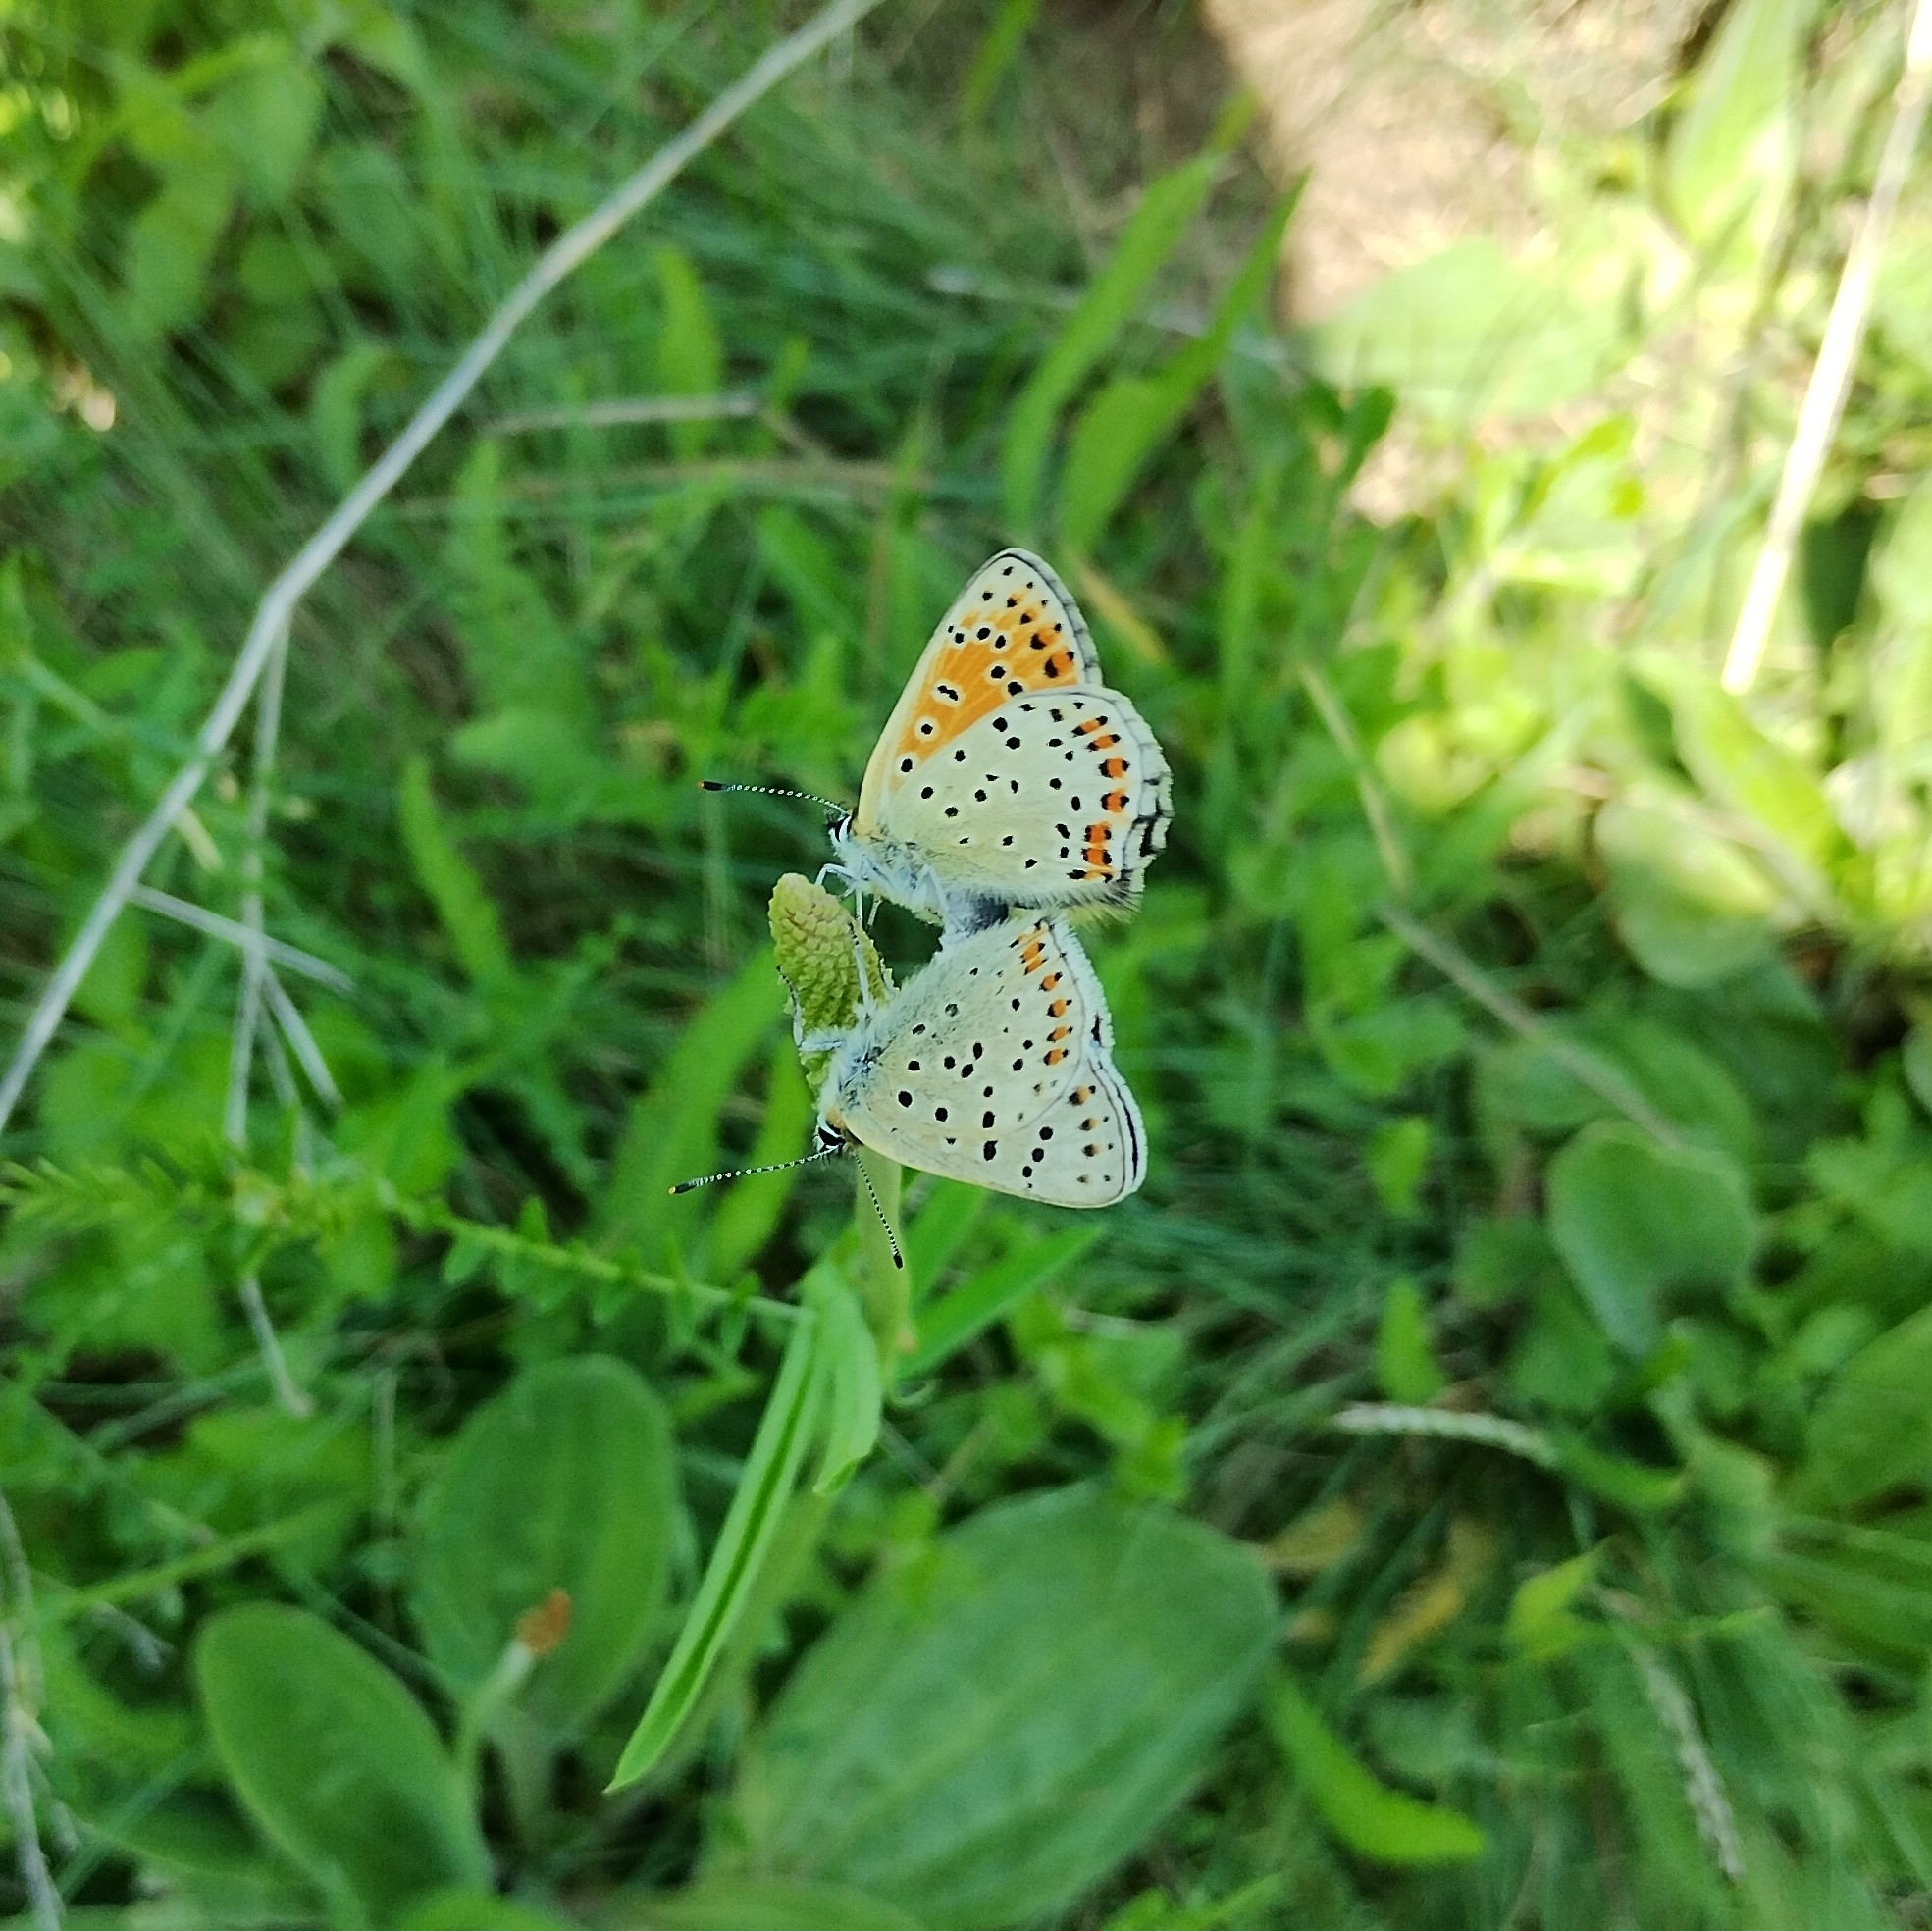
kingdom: Animalia
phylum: Arthropoda
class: Insecta
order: Lepidoptera
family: Lycaenidae
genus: Loweia
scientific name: Loweia tityrus
